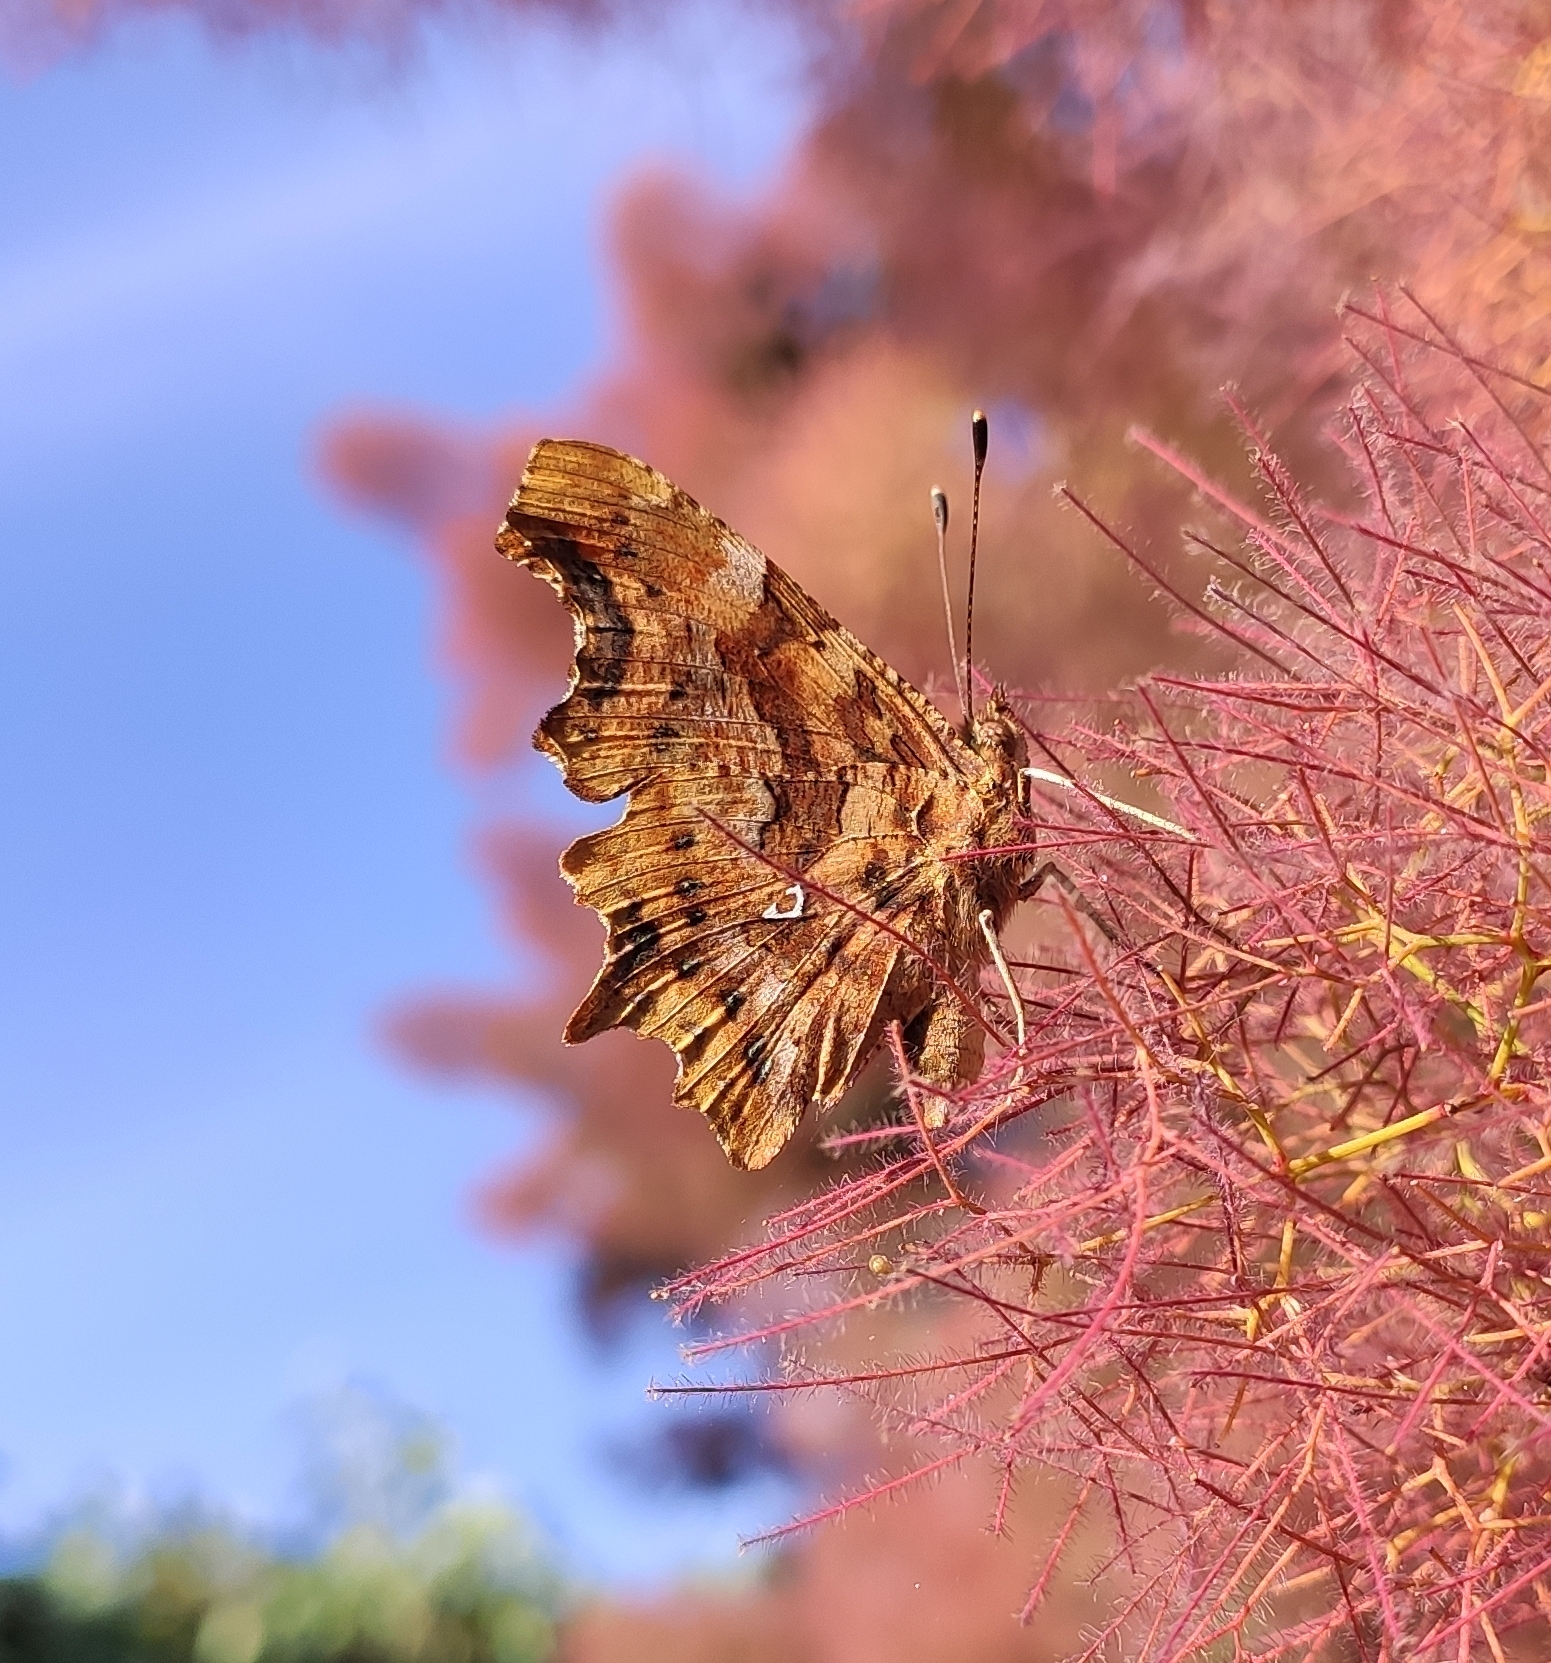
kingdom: Animalia
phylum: Arthropoda
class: Insecta
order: Lepidoptera
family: Nymphalidae
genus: Polygonia
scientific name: Polygonia c-album
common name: Comma
